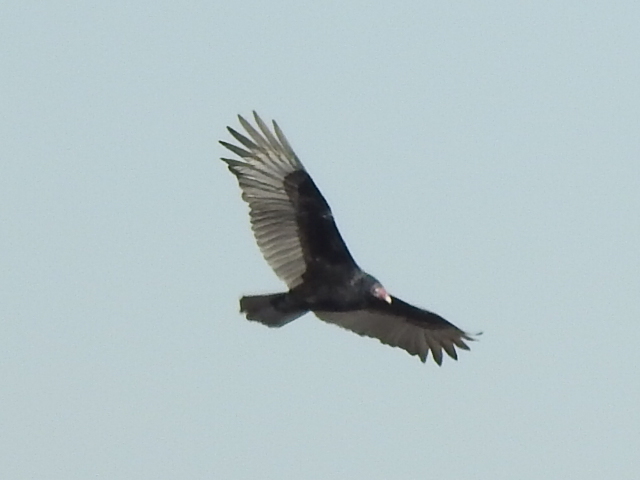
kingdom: Animalia
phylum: Chordata
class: Aves
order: Accipitriformes
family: Cathartidae
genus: Cathartes
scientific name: Cathartes aura
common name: Turkey vulture
